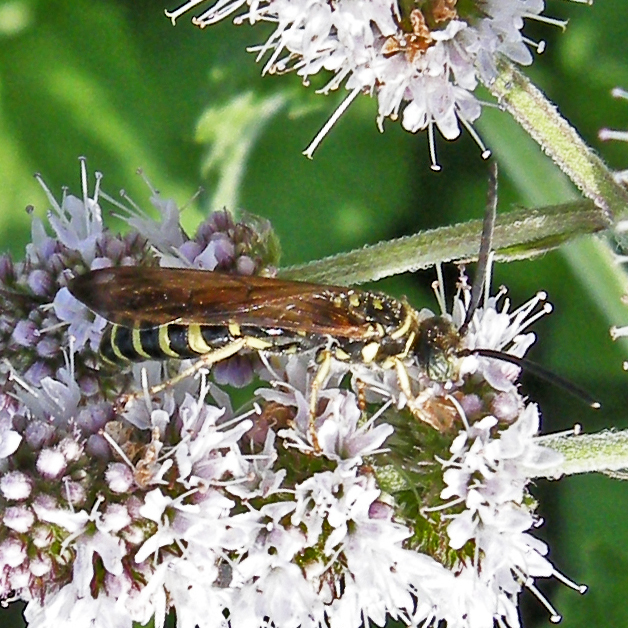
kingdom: Animalia
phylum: Arthropoda
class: Insecta
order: Hymenoptera
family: Tiphiidae
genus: Myzinum
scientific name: Myzinum quinquecinctum
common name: Five-banded thynnid wasp
